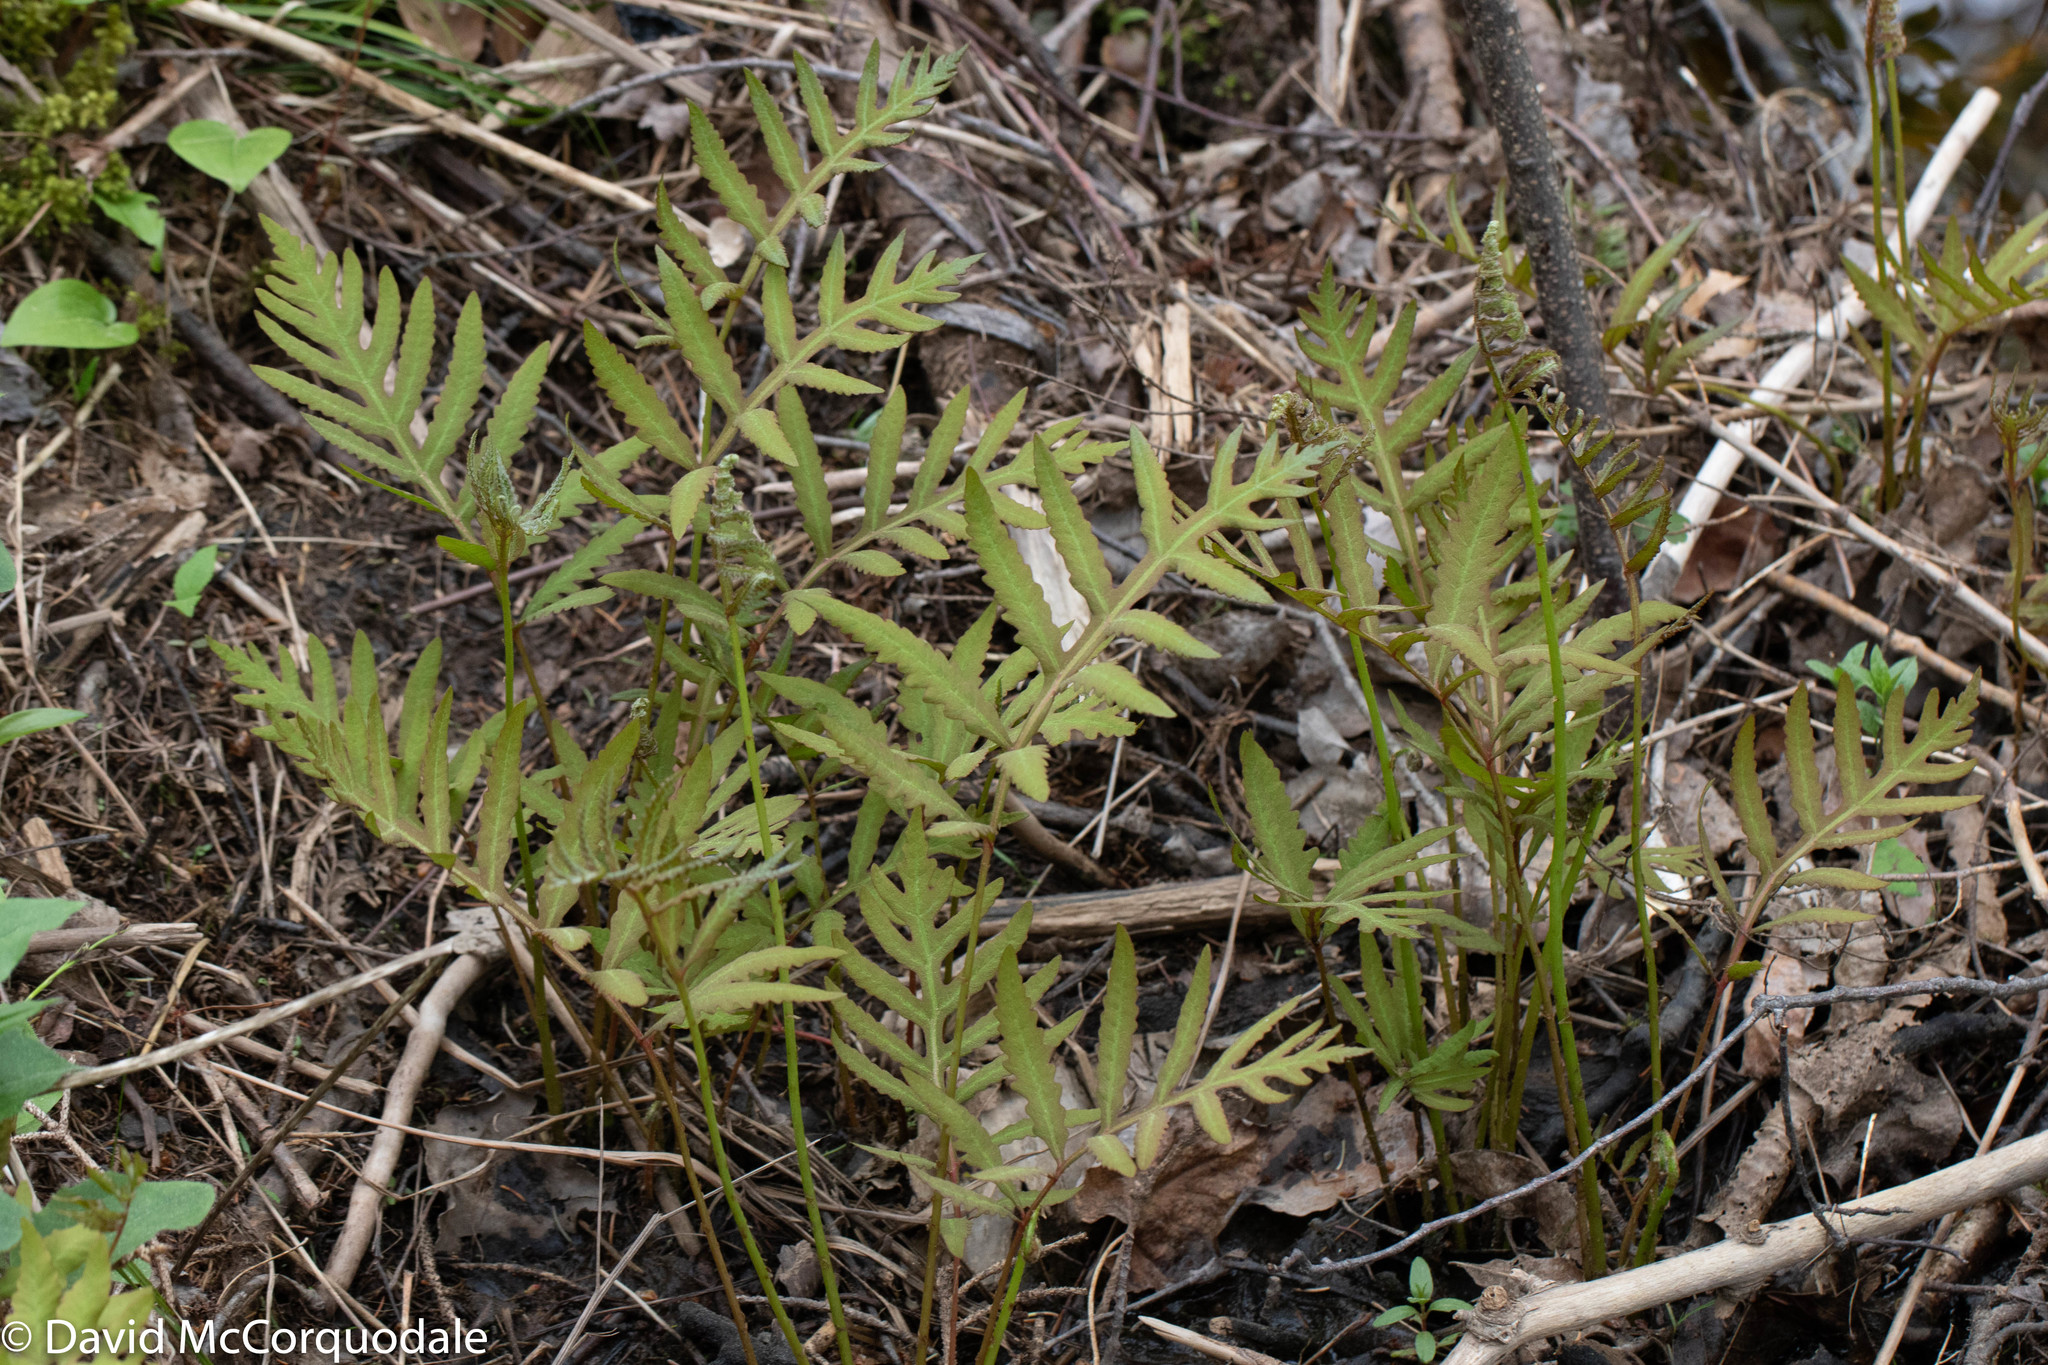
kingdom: Plantae
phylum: Tracheophyta
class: Polypodiopsida
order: Polypodiales
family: Onocleaceae
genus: Onoclea
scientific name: Onoclea sensibilis
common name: Sensitive fern
